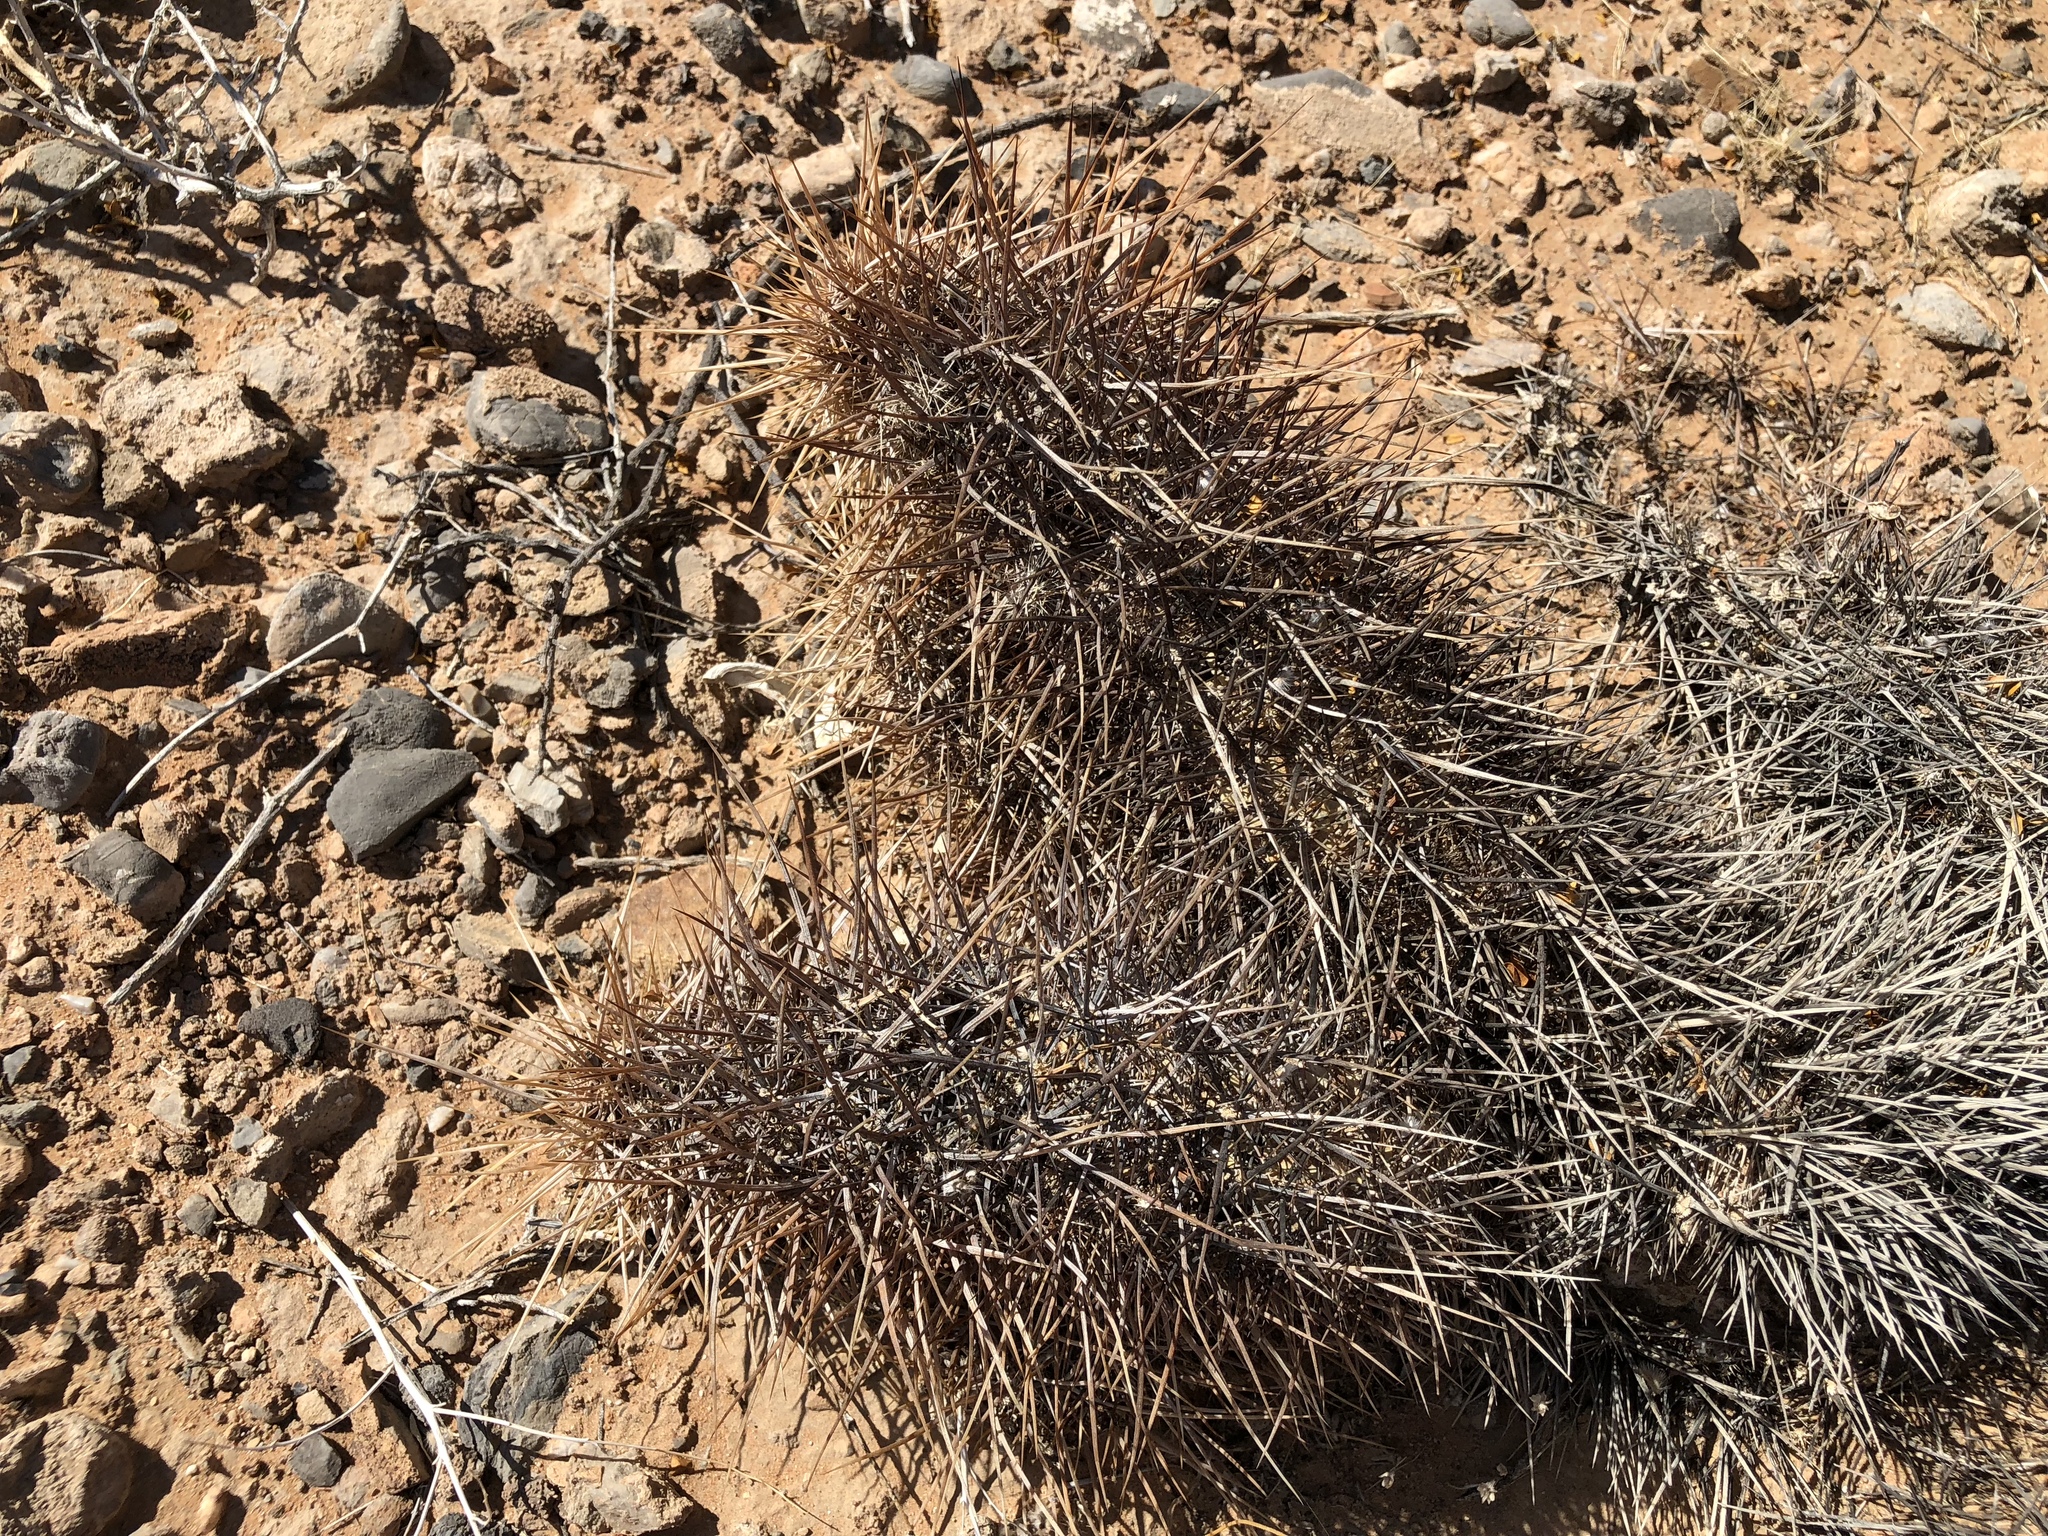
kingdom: Plantae
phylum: Tracheophyta
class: Magnoliopsida
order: Caryophyllales
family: Cactaceae
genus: Echinocereus
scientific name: Echinocereus engelmannii
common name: Engelmann's hedgehog cactus
